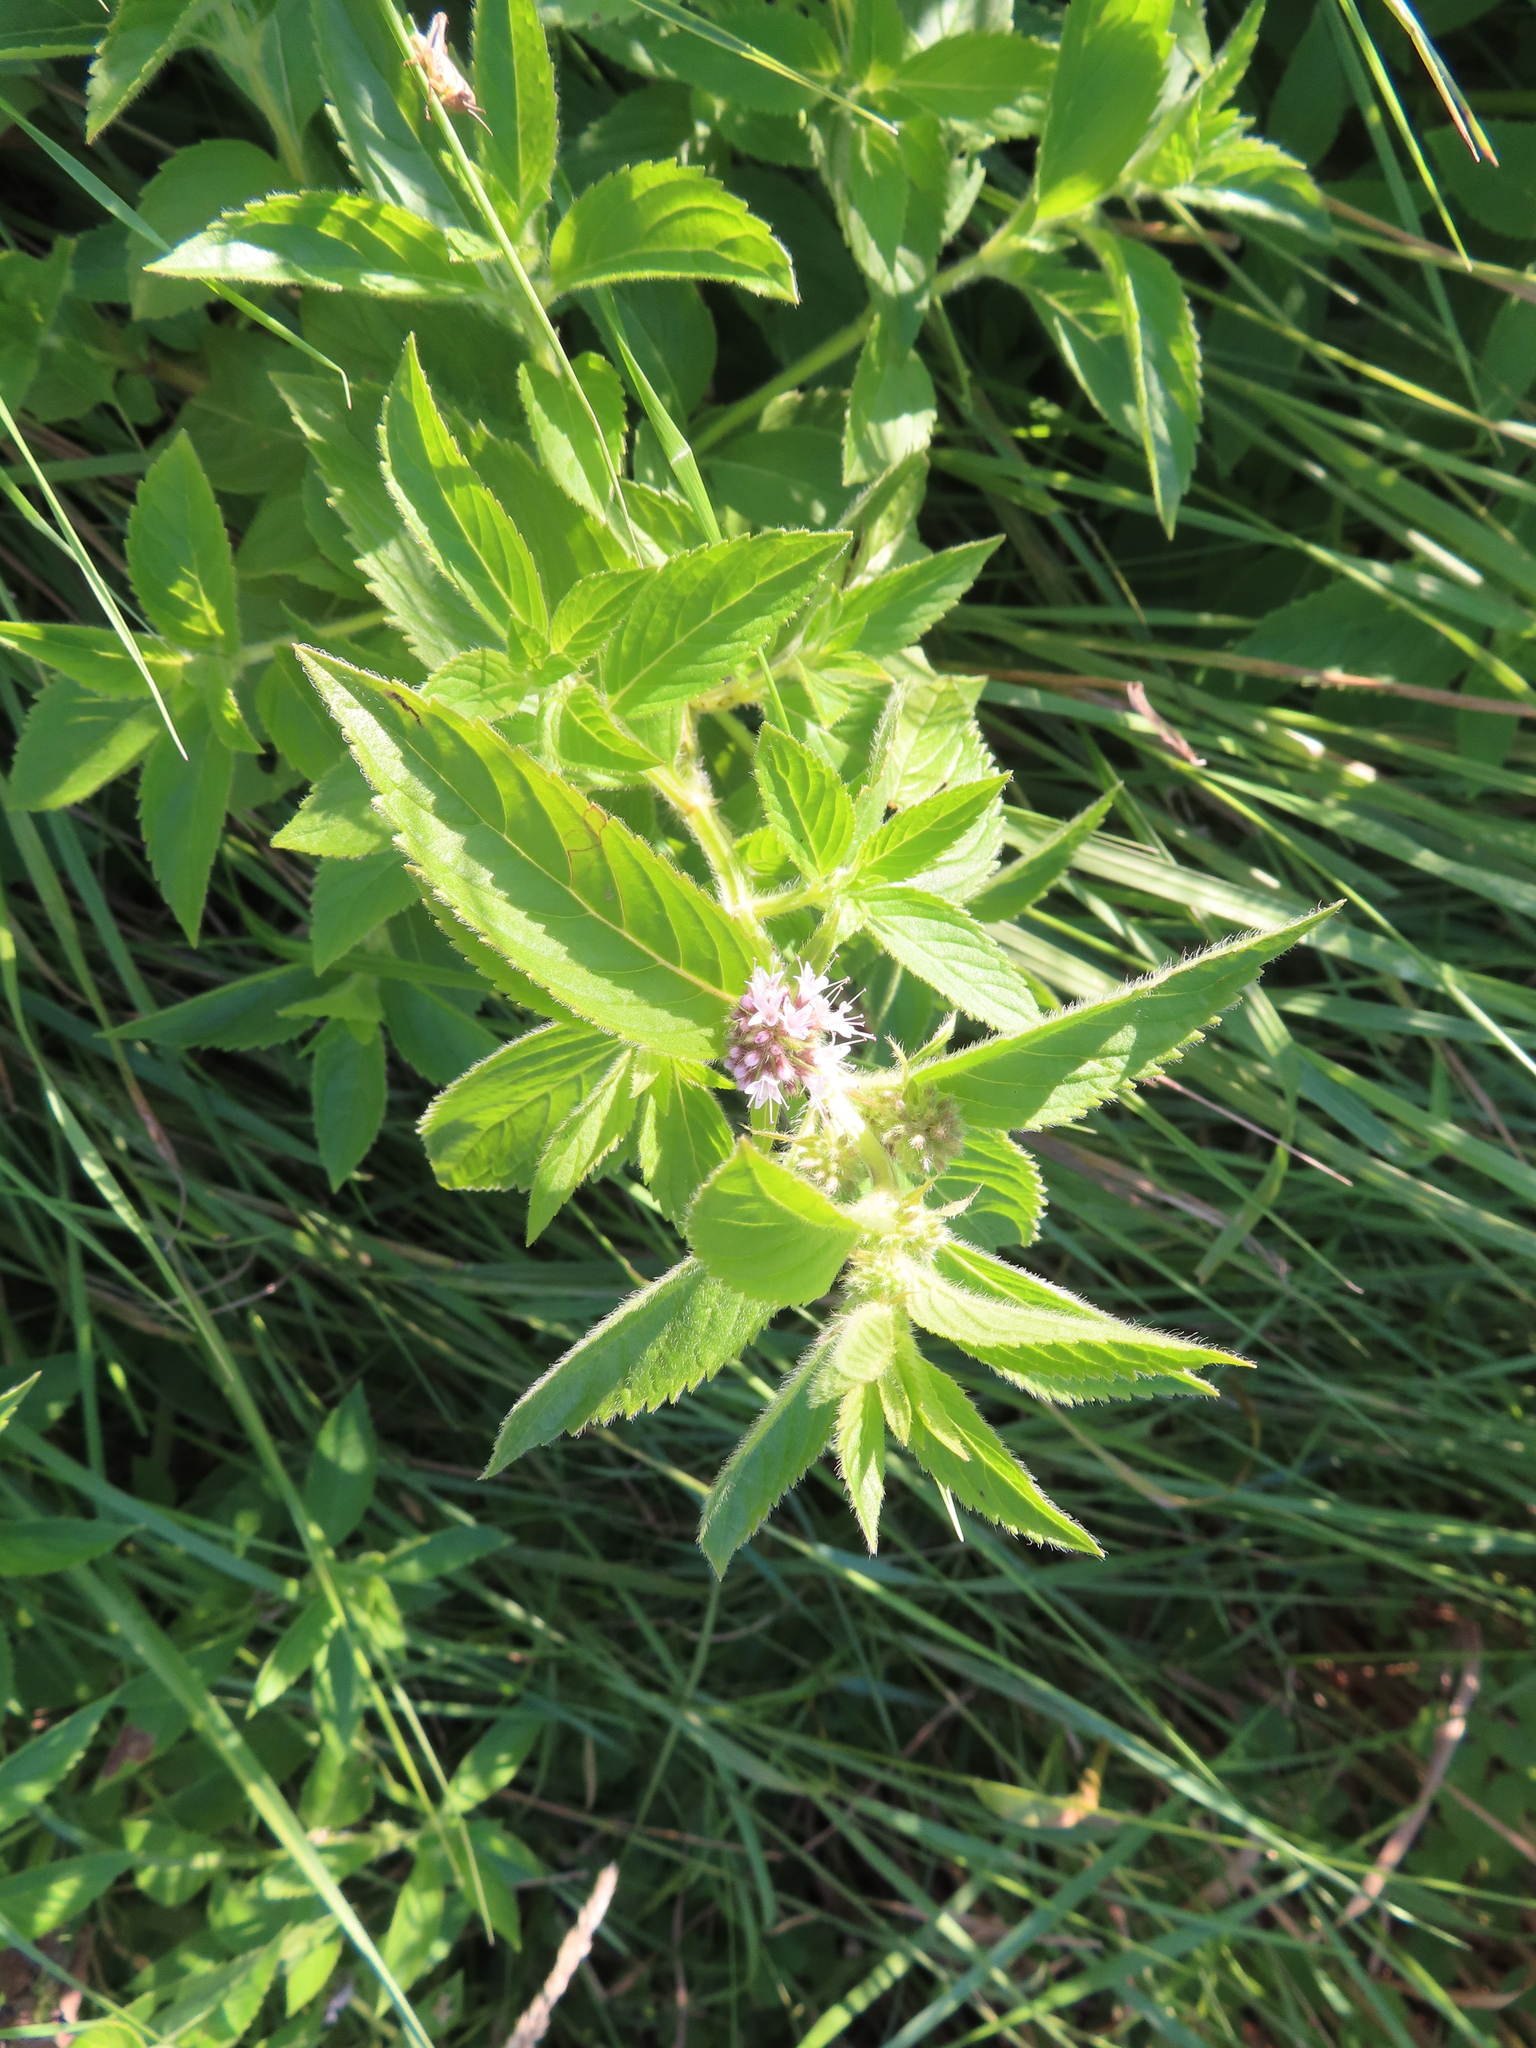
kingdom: Plantae
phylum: Tracheophyta
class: Magnoliopsida
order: Lamiales
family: Lamiaceae
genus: Mentha
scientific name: Mentha canadensis
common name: American corn mint
